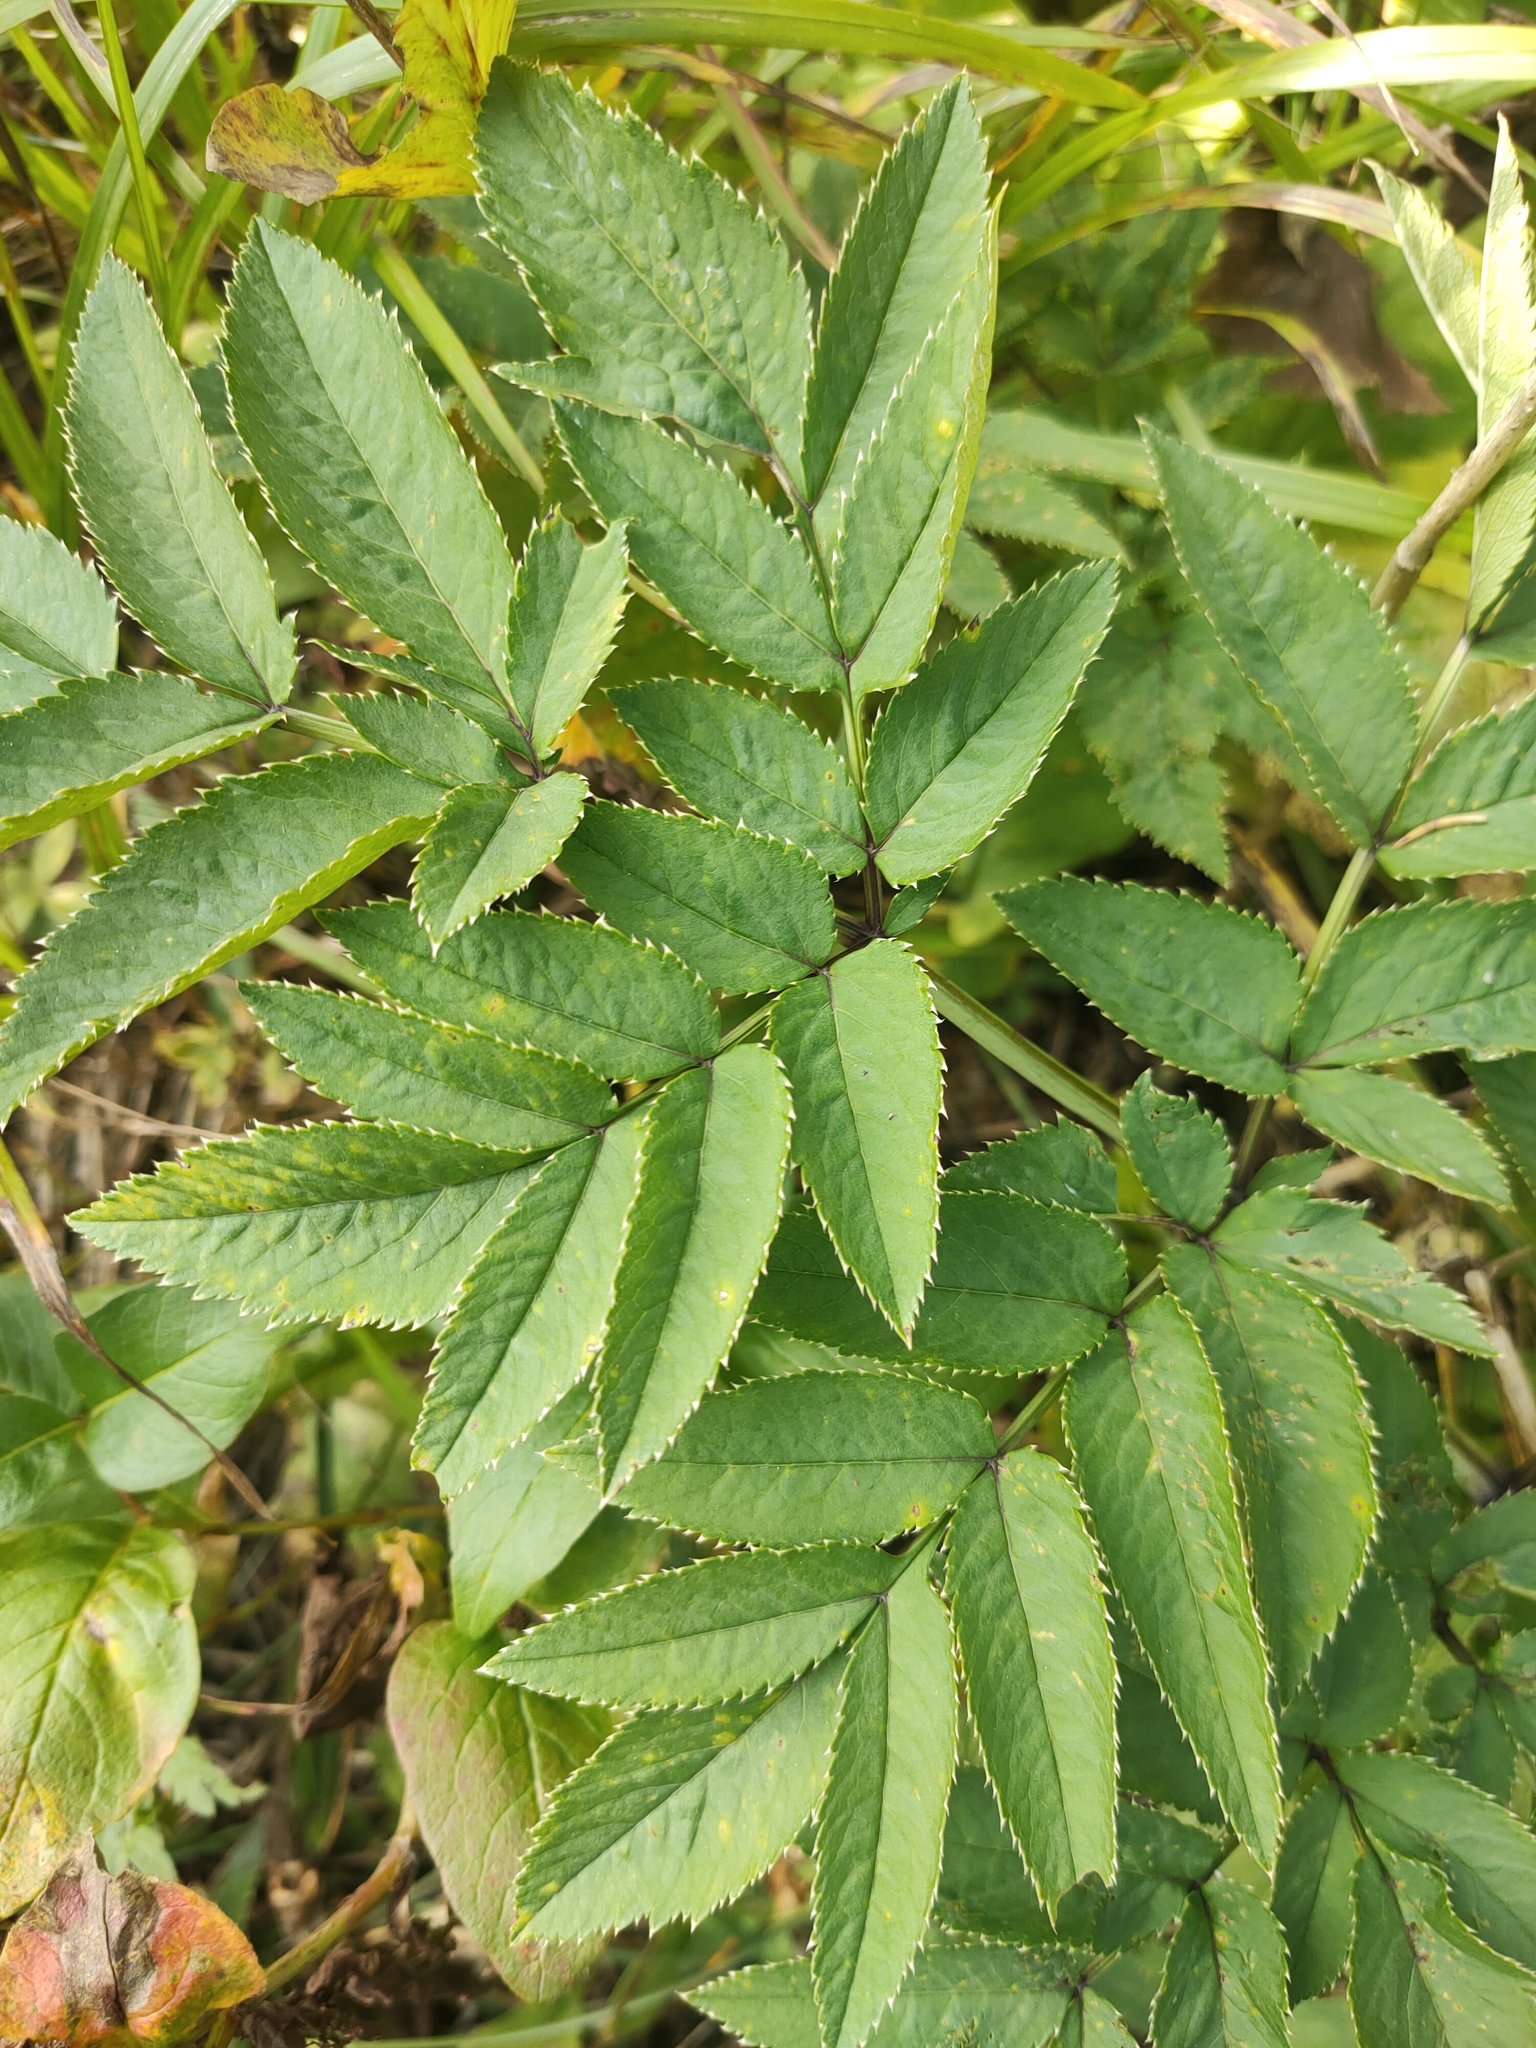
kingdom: Plantae
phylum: Tracheophyta
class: Magnoliopsida
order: Apiales
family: Apiaceae
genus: Angelica
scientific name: Angelica sylvestris
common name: Wild angelica
